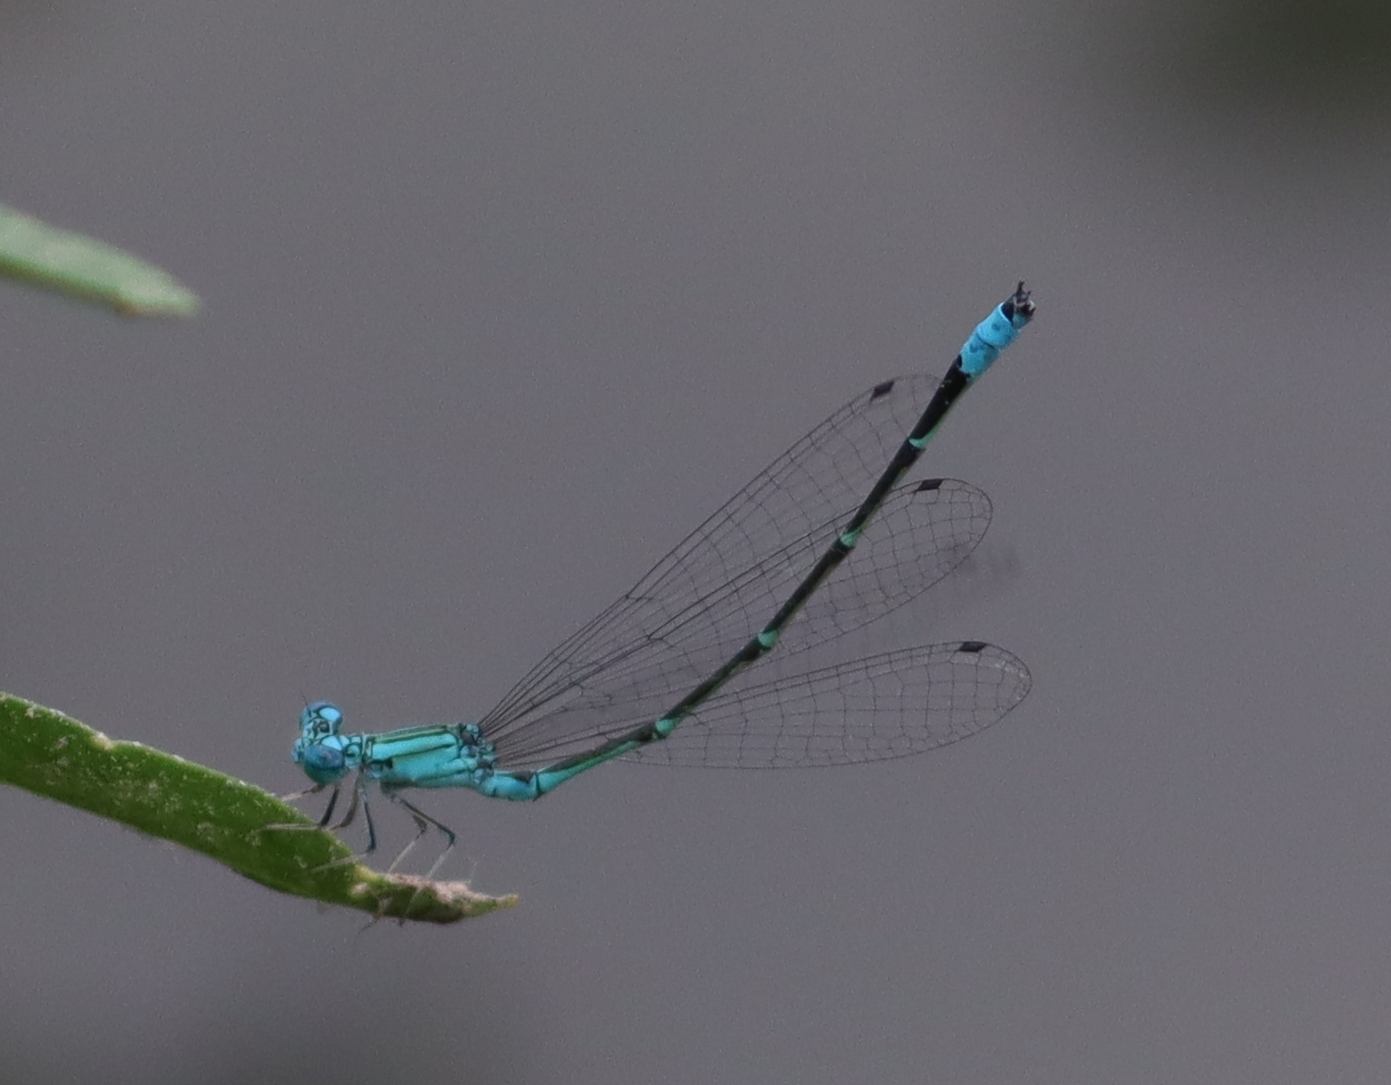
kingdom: Animalia
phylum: Arthropoda
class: Insecta
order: Odonata
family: Coenagrionidae
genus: Enallagma
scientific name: Enallagma traviatum
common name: Slender bluet
